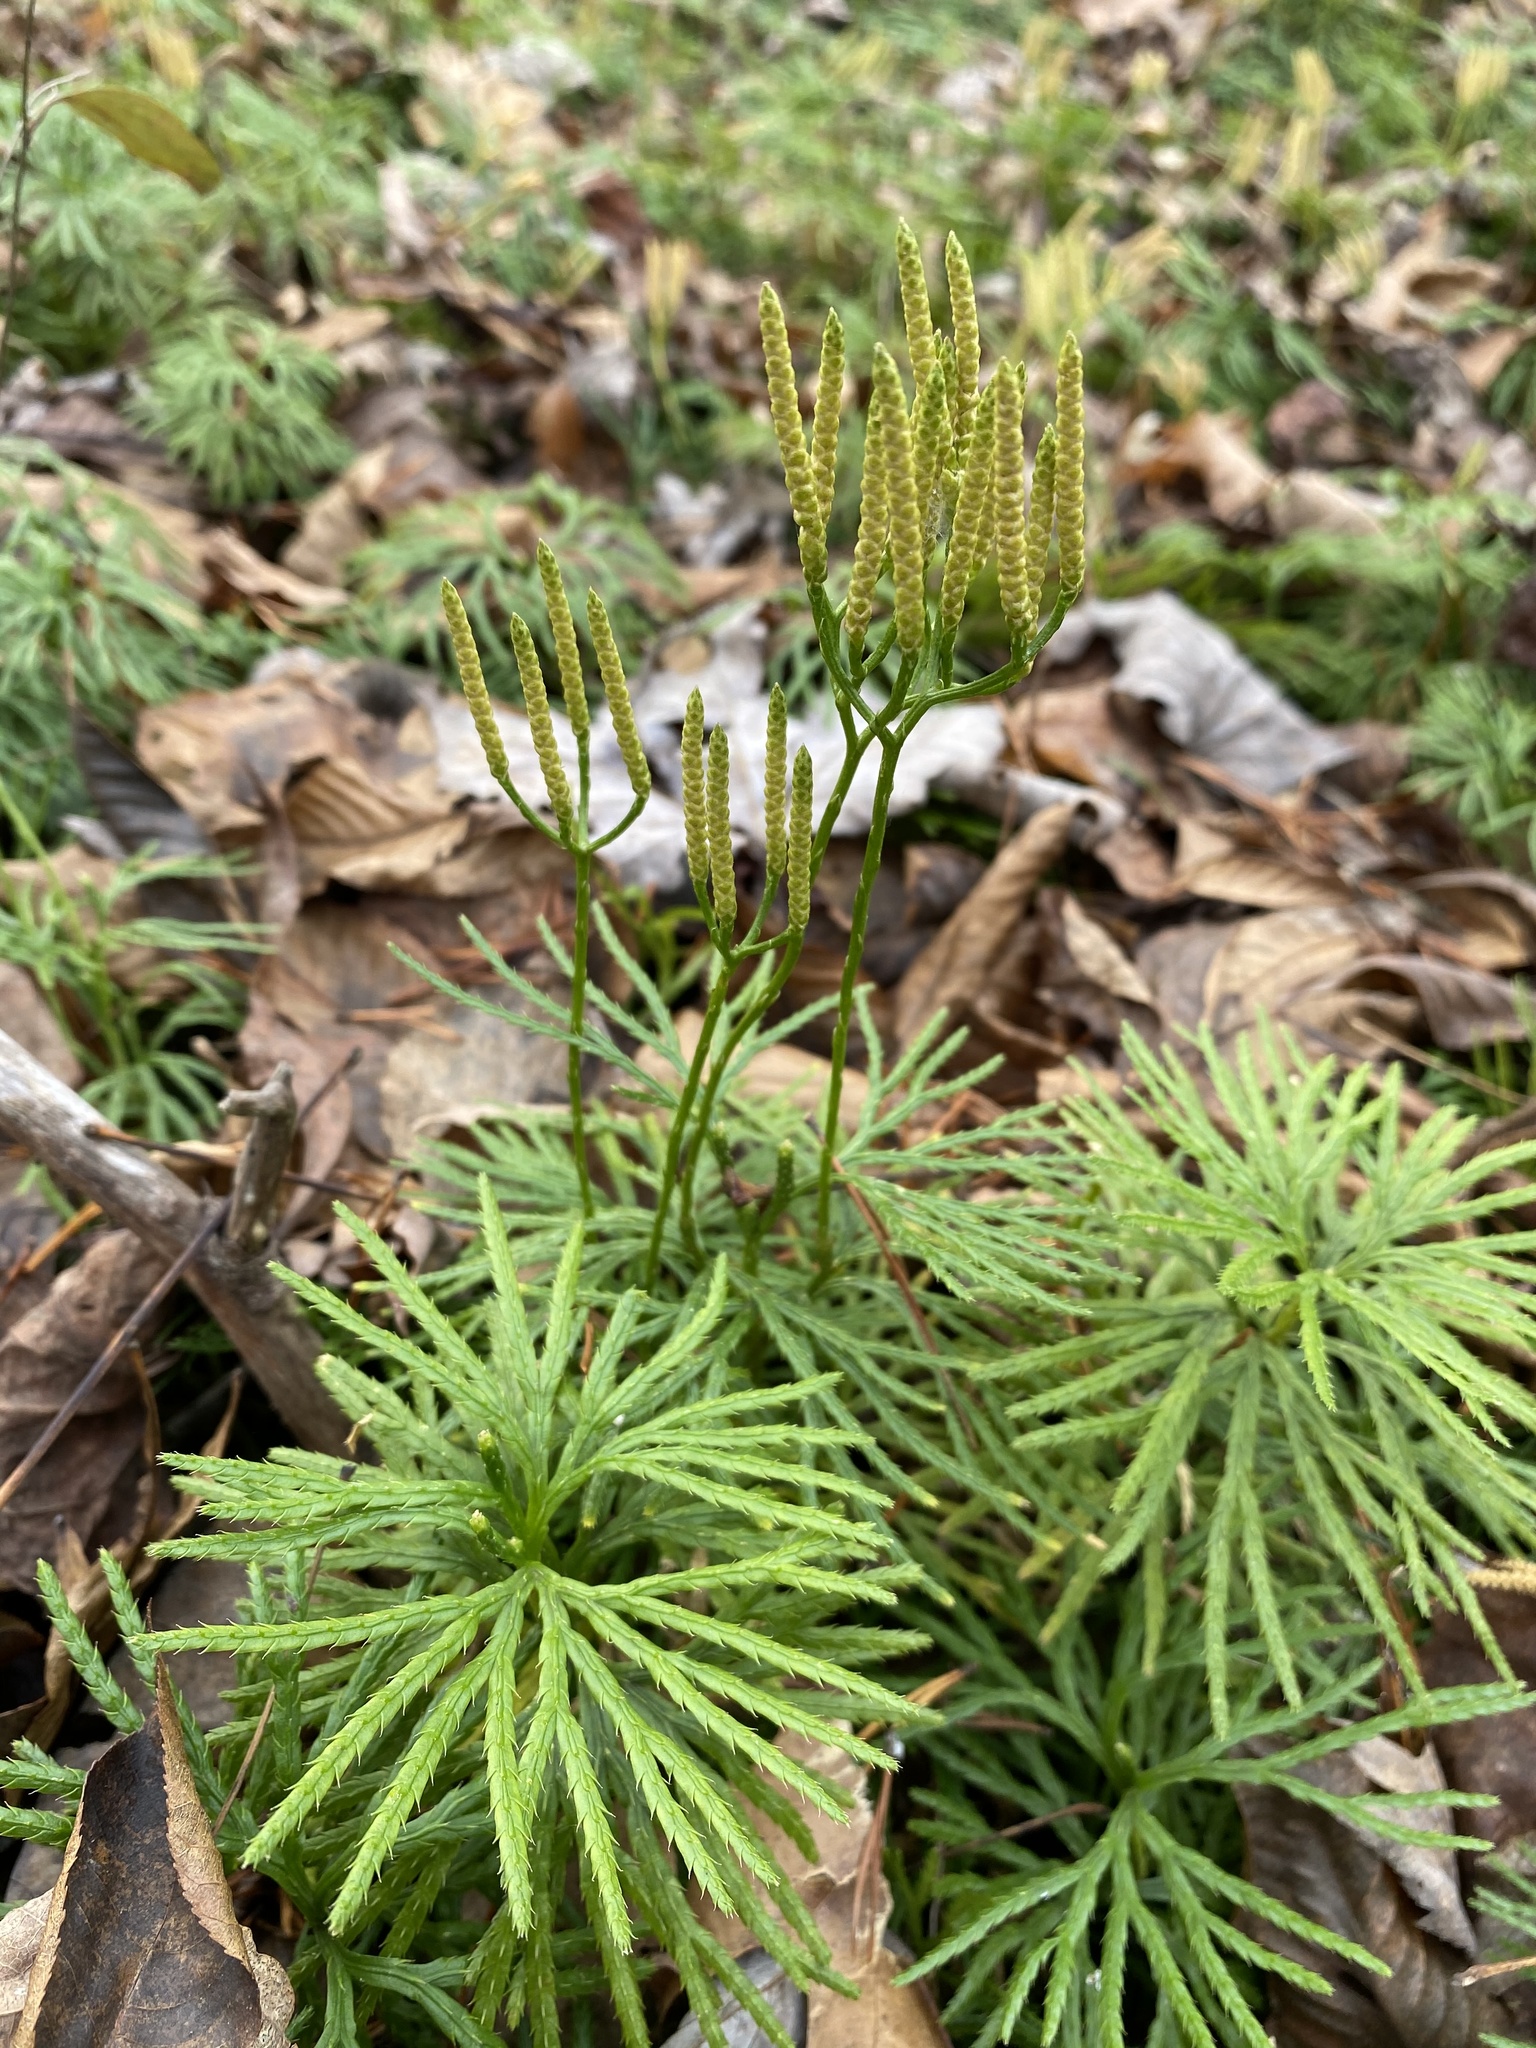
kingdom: Plantae
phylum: Tracheophyta
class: Lycopodiopsida
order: Lycopodiales
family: Lycopodiaceae
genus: Diphasiastrum
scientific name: Diphasiastrum digitatum
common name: Southern running-pine
